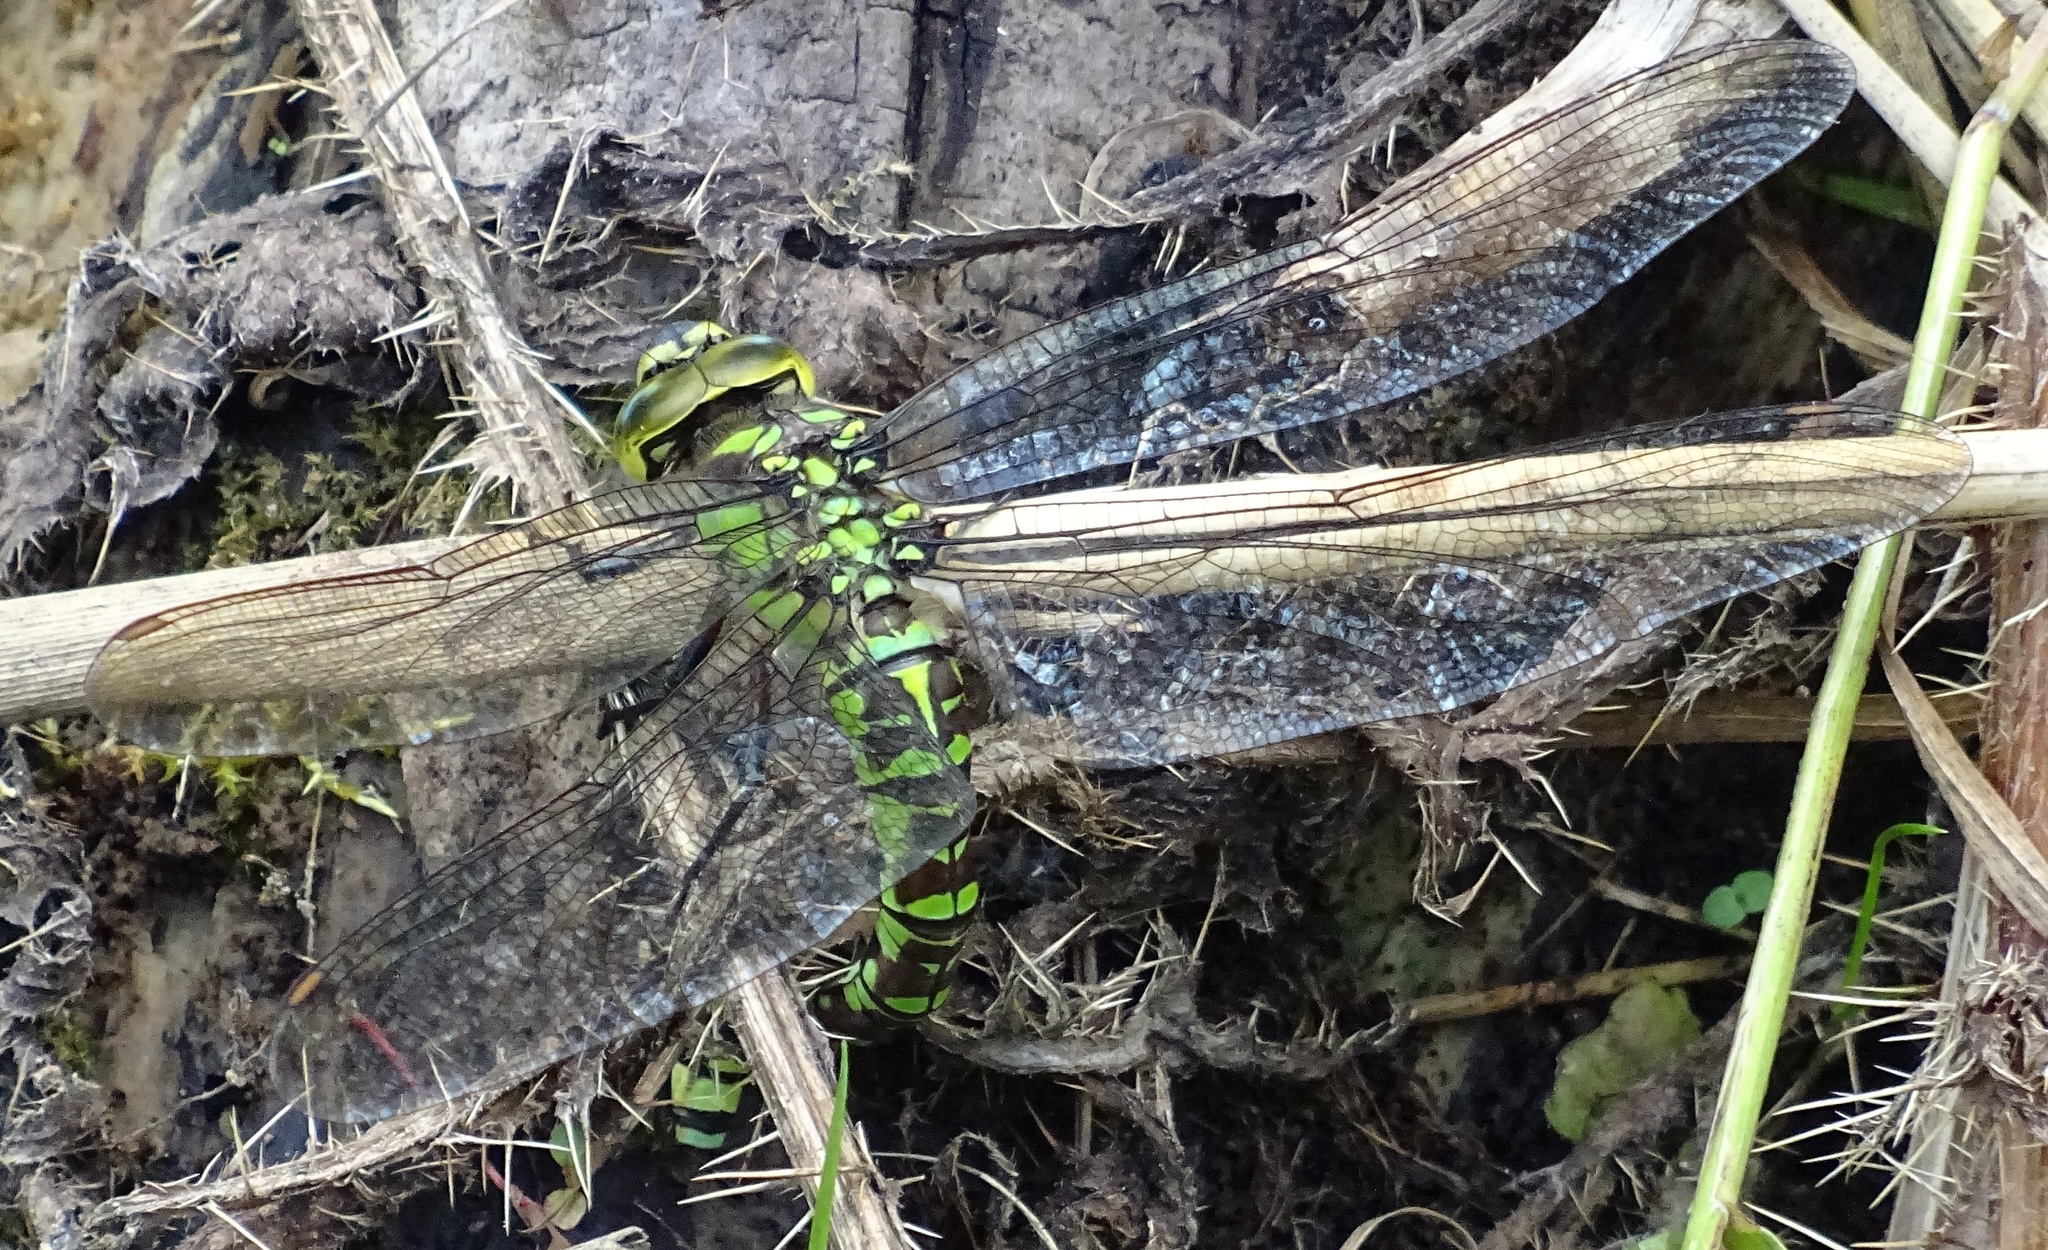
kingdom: Animalia
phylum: Arthropoda
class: Insecta
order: Odonata
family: Aeshnidae
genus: Aeshna
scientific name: Aeshna cyanea
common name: Southern hawker
